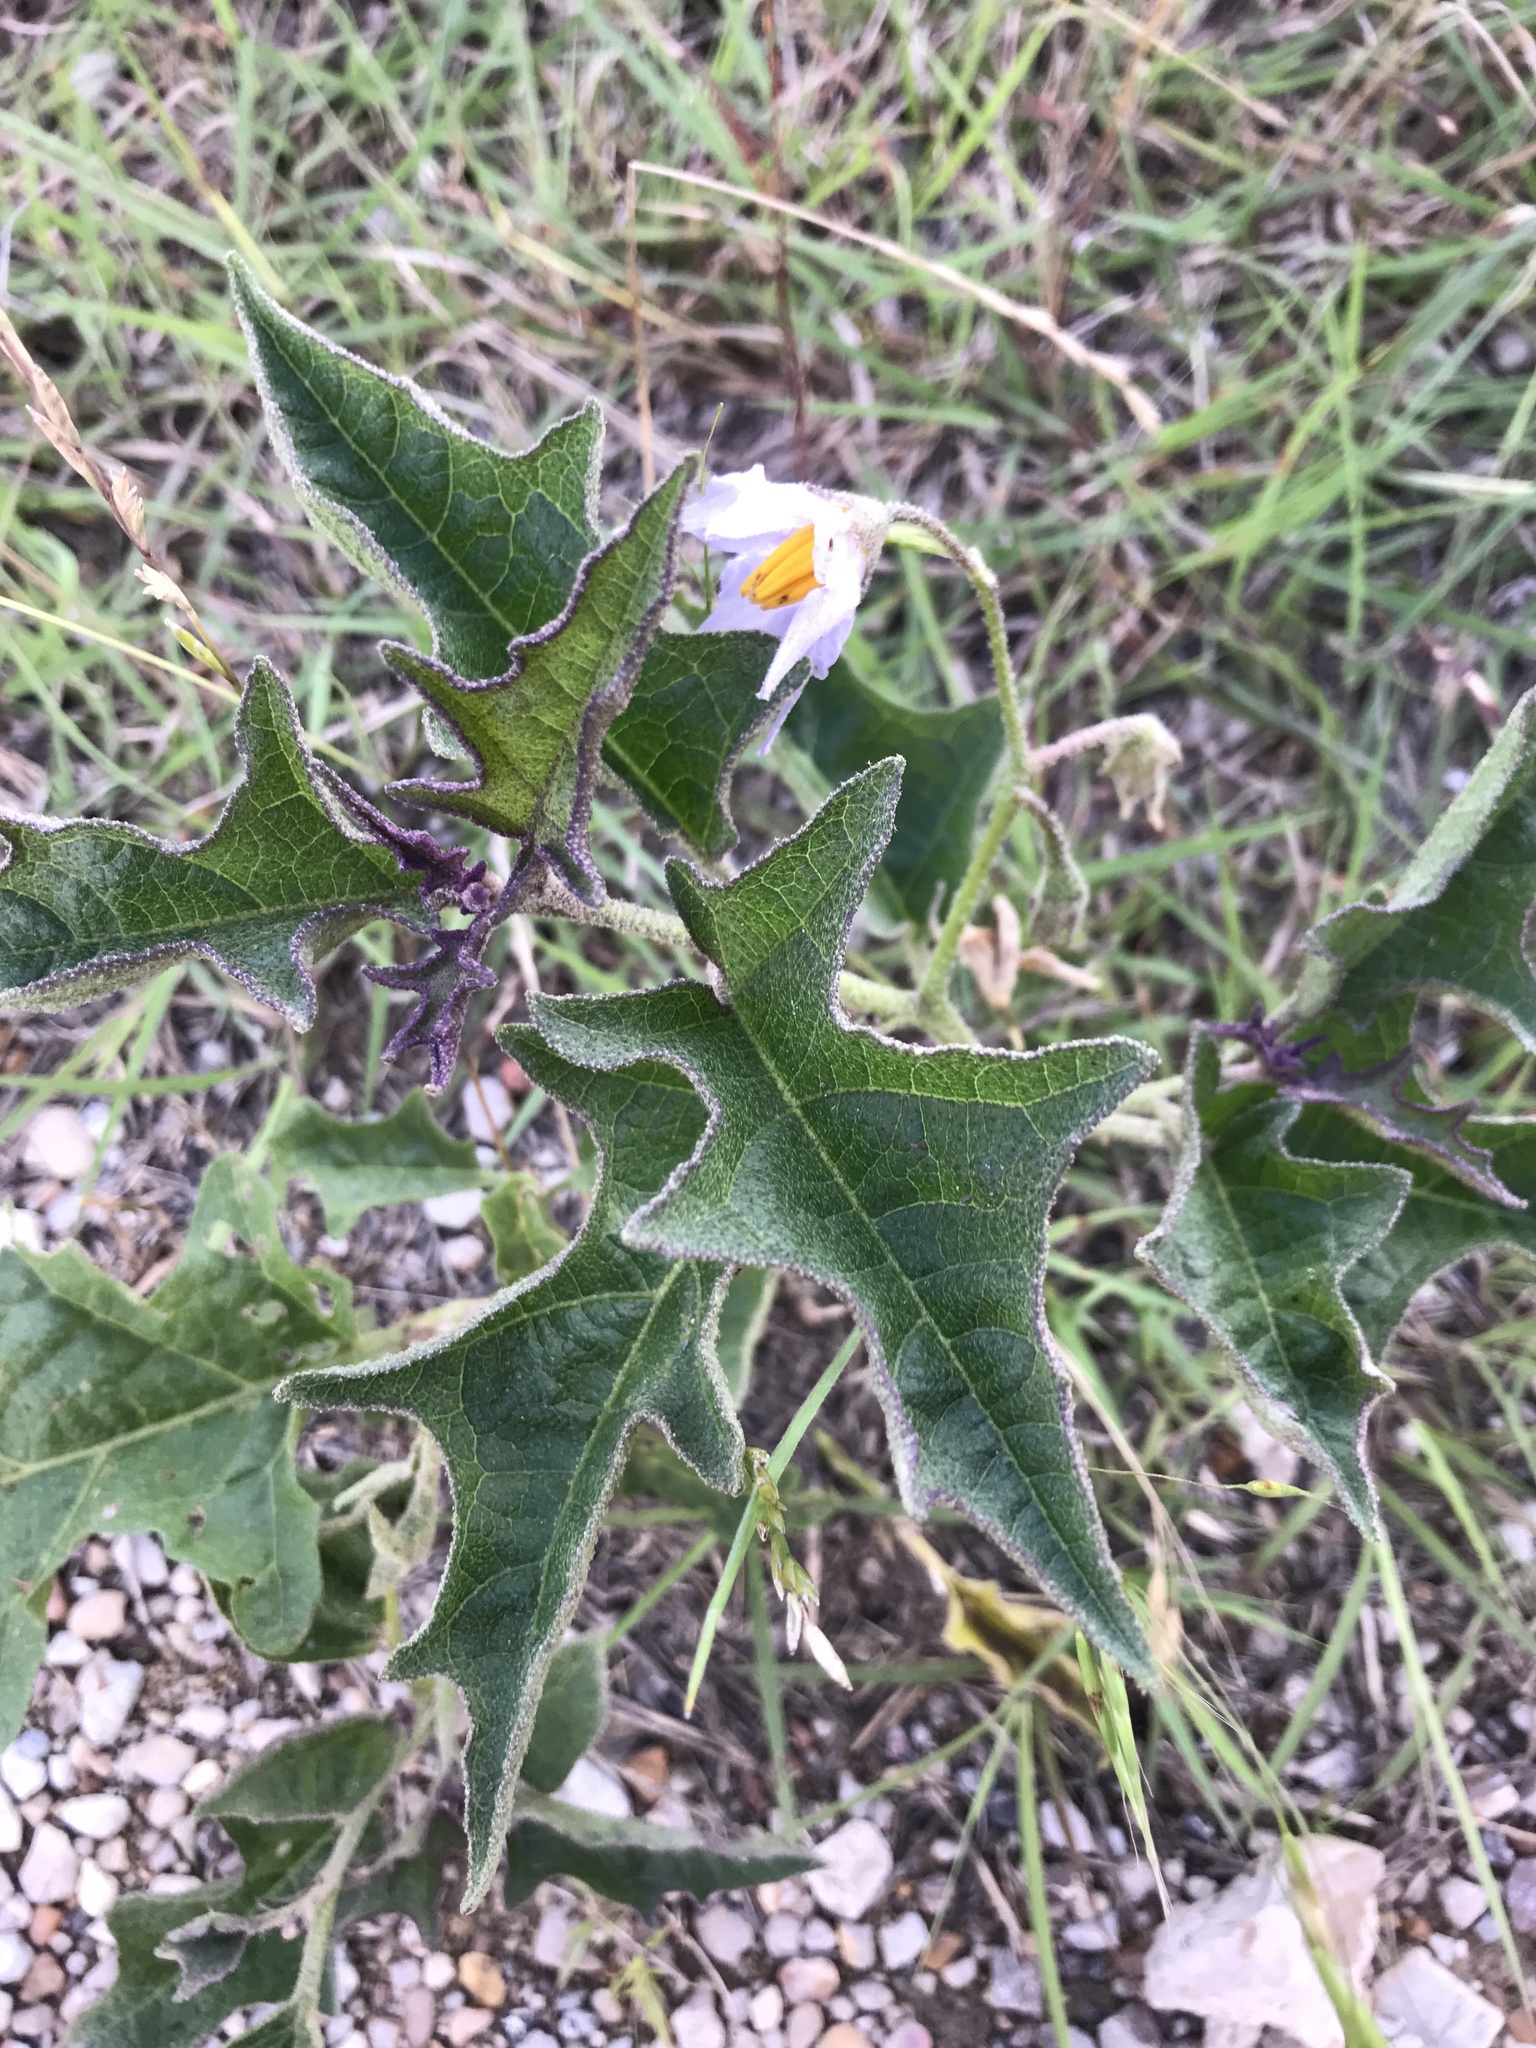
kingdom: Plantae
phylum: Tracheophyta
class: Magnoliopsida
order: Solanales
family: Solanaceae
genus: Solanum
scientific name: Solanum dimidiatum
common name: Carolina horse-nettle
